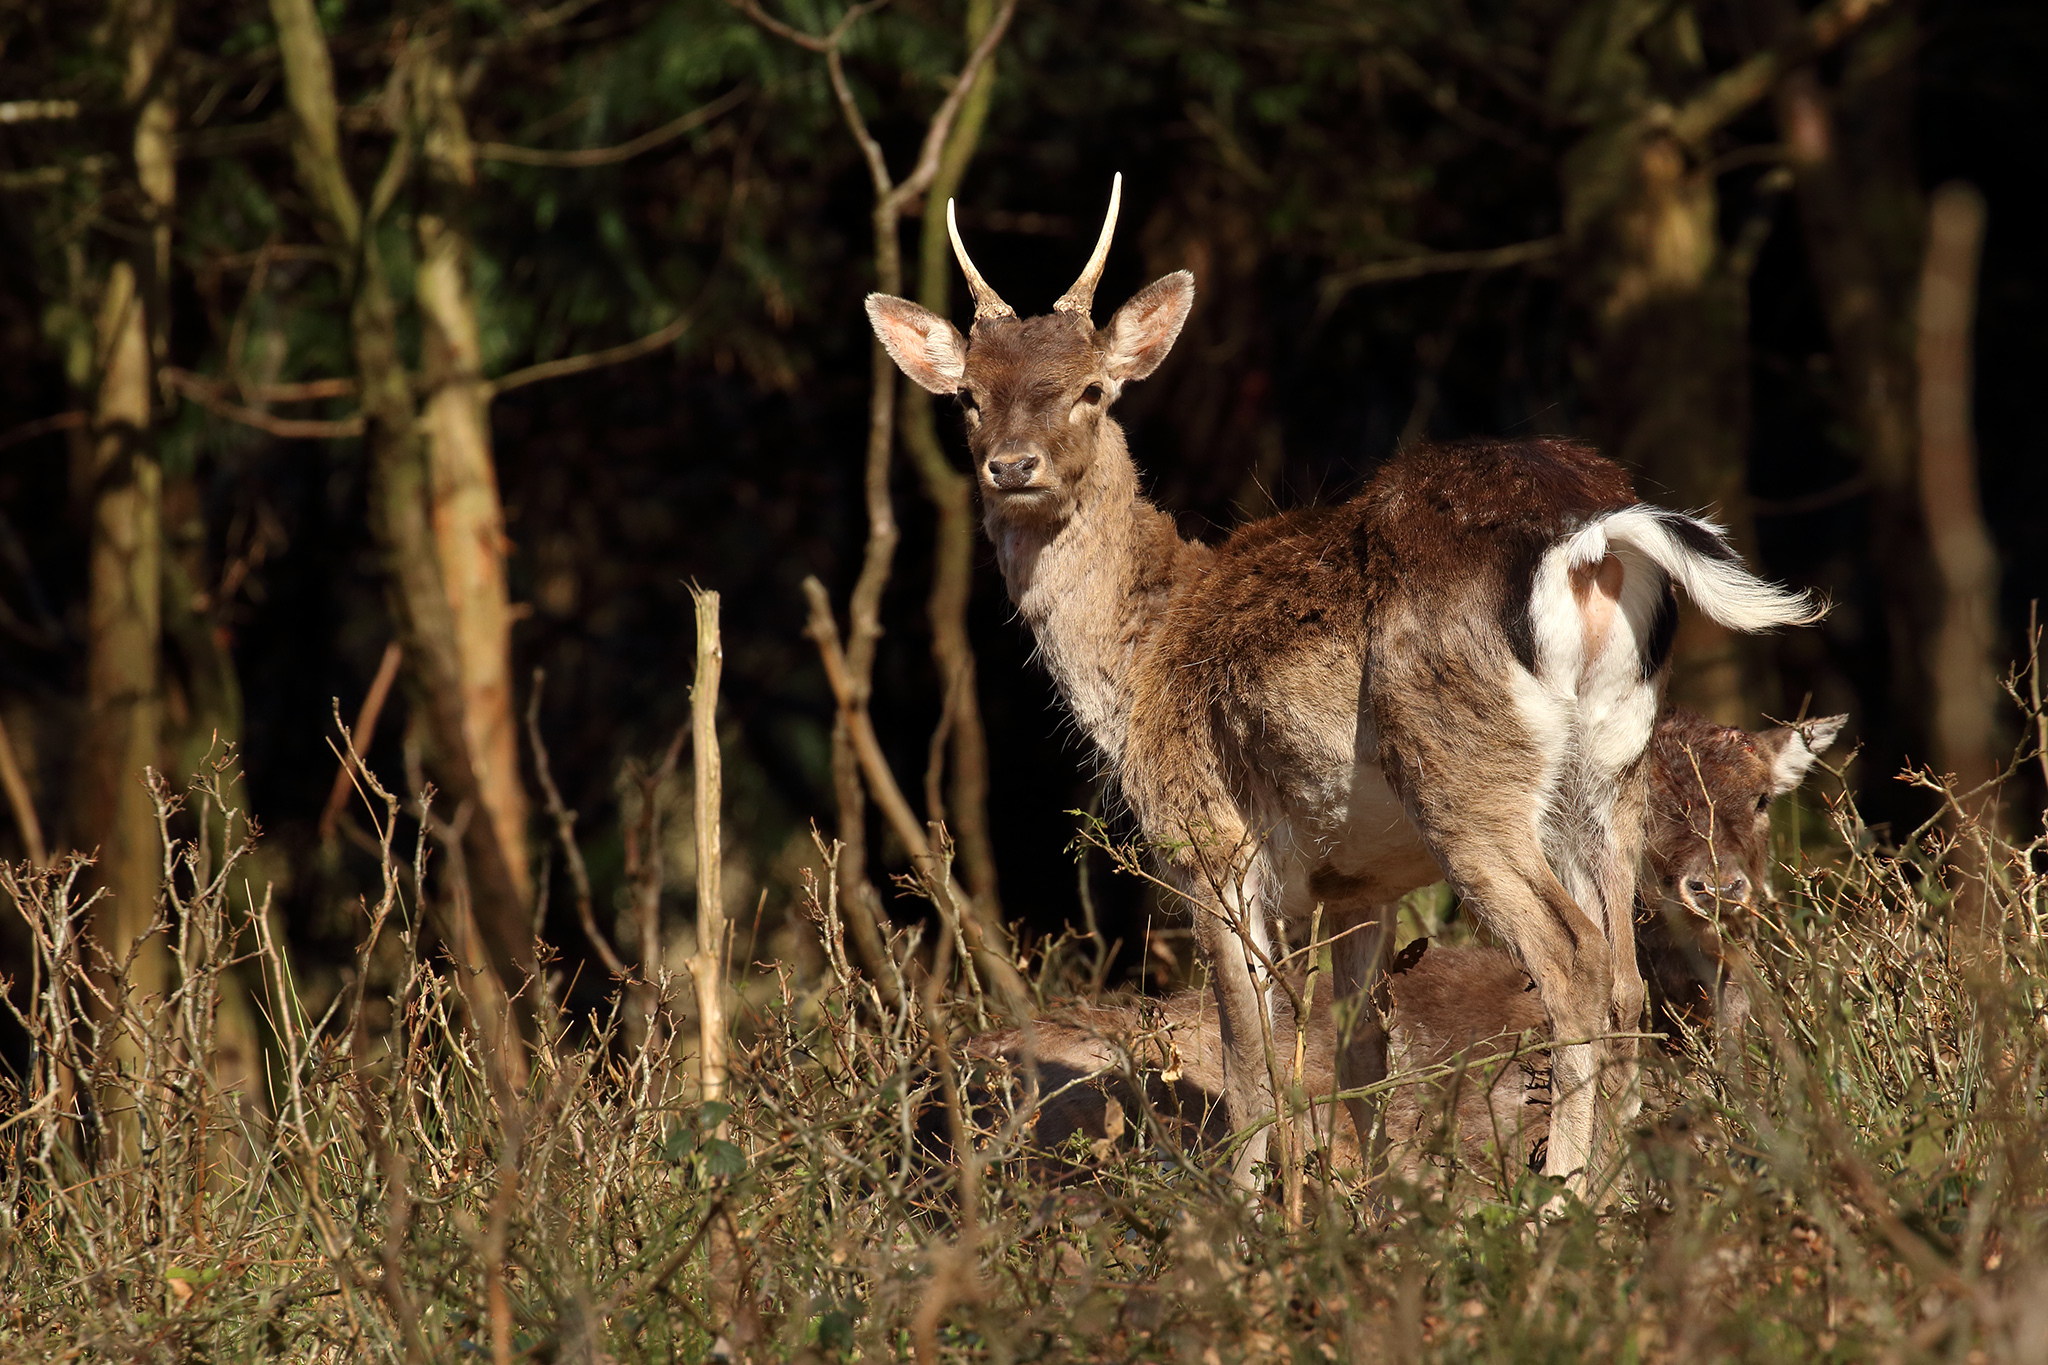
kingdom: Animalia
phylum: Chordata
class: Mammalia
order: Artiodactyla
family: Cervidae
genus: Dama
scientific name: Dama dama
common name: Fallow deer
